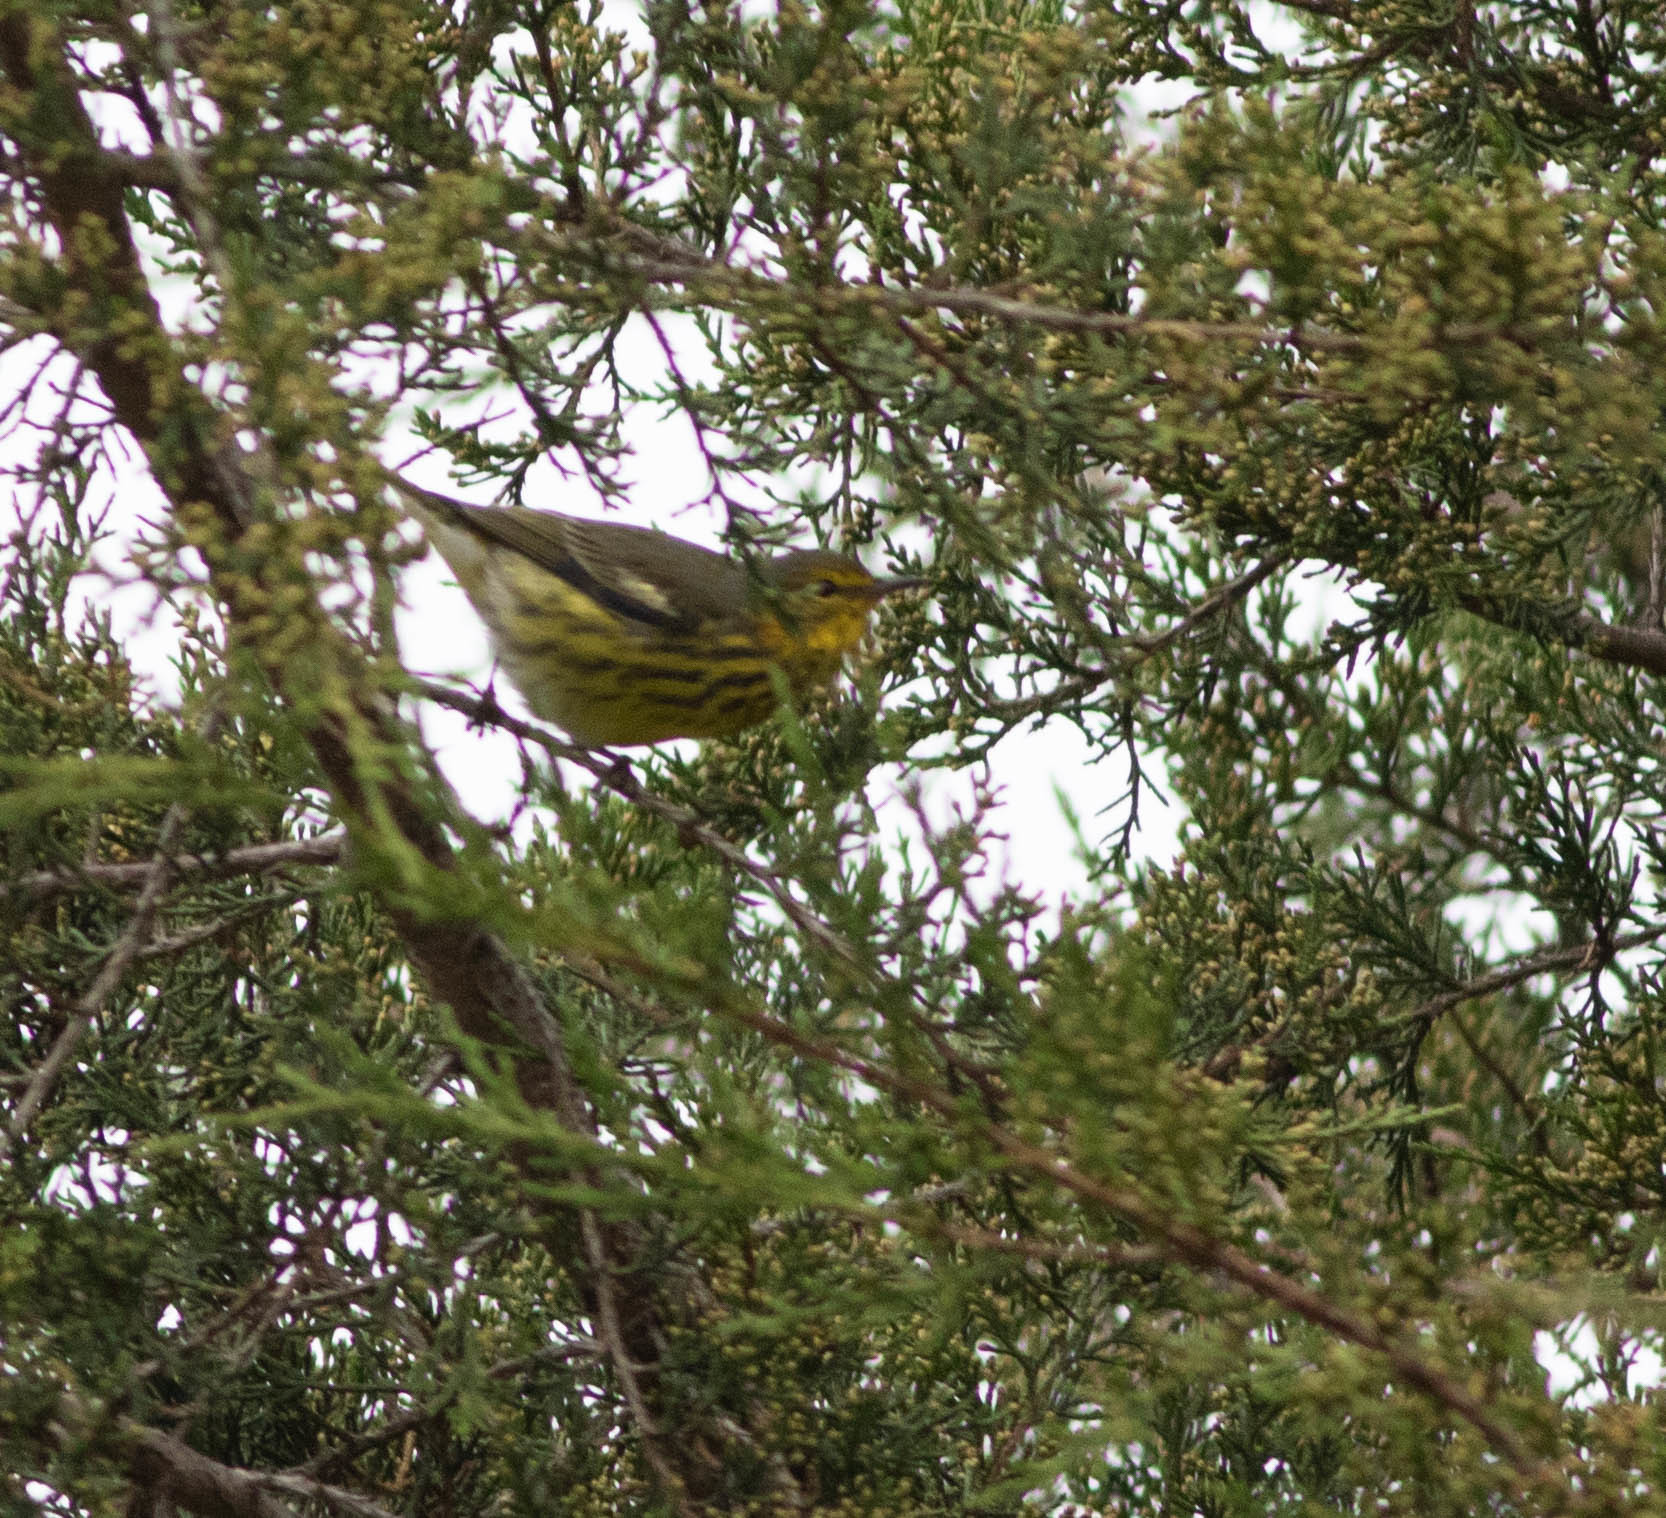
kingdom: Animalia
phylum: Chordata
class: Aves
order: Passeriformes
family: Parulidae
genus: Setophaga
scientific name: Setophaga tigrina
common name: Cape may warbler
